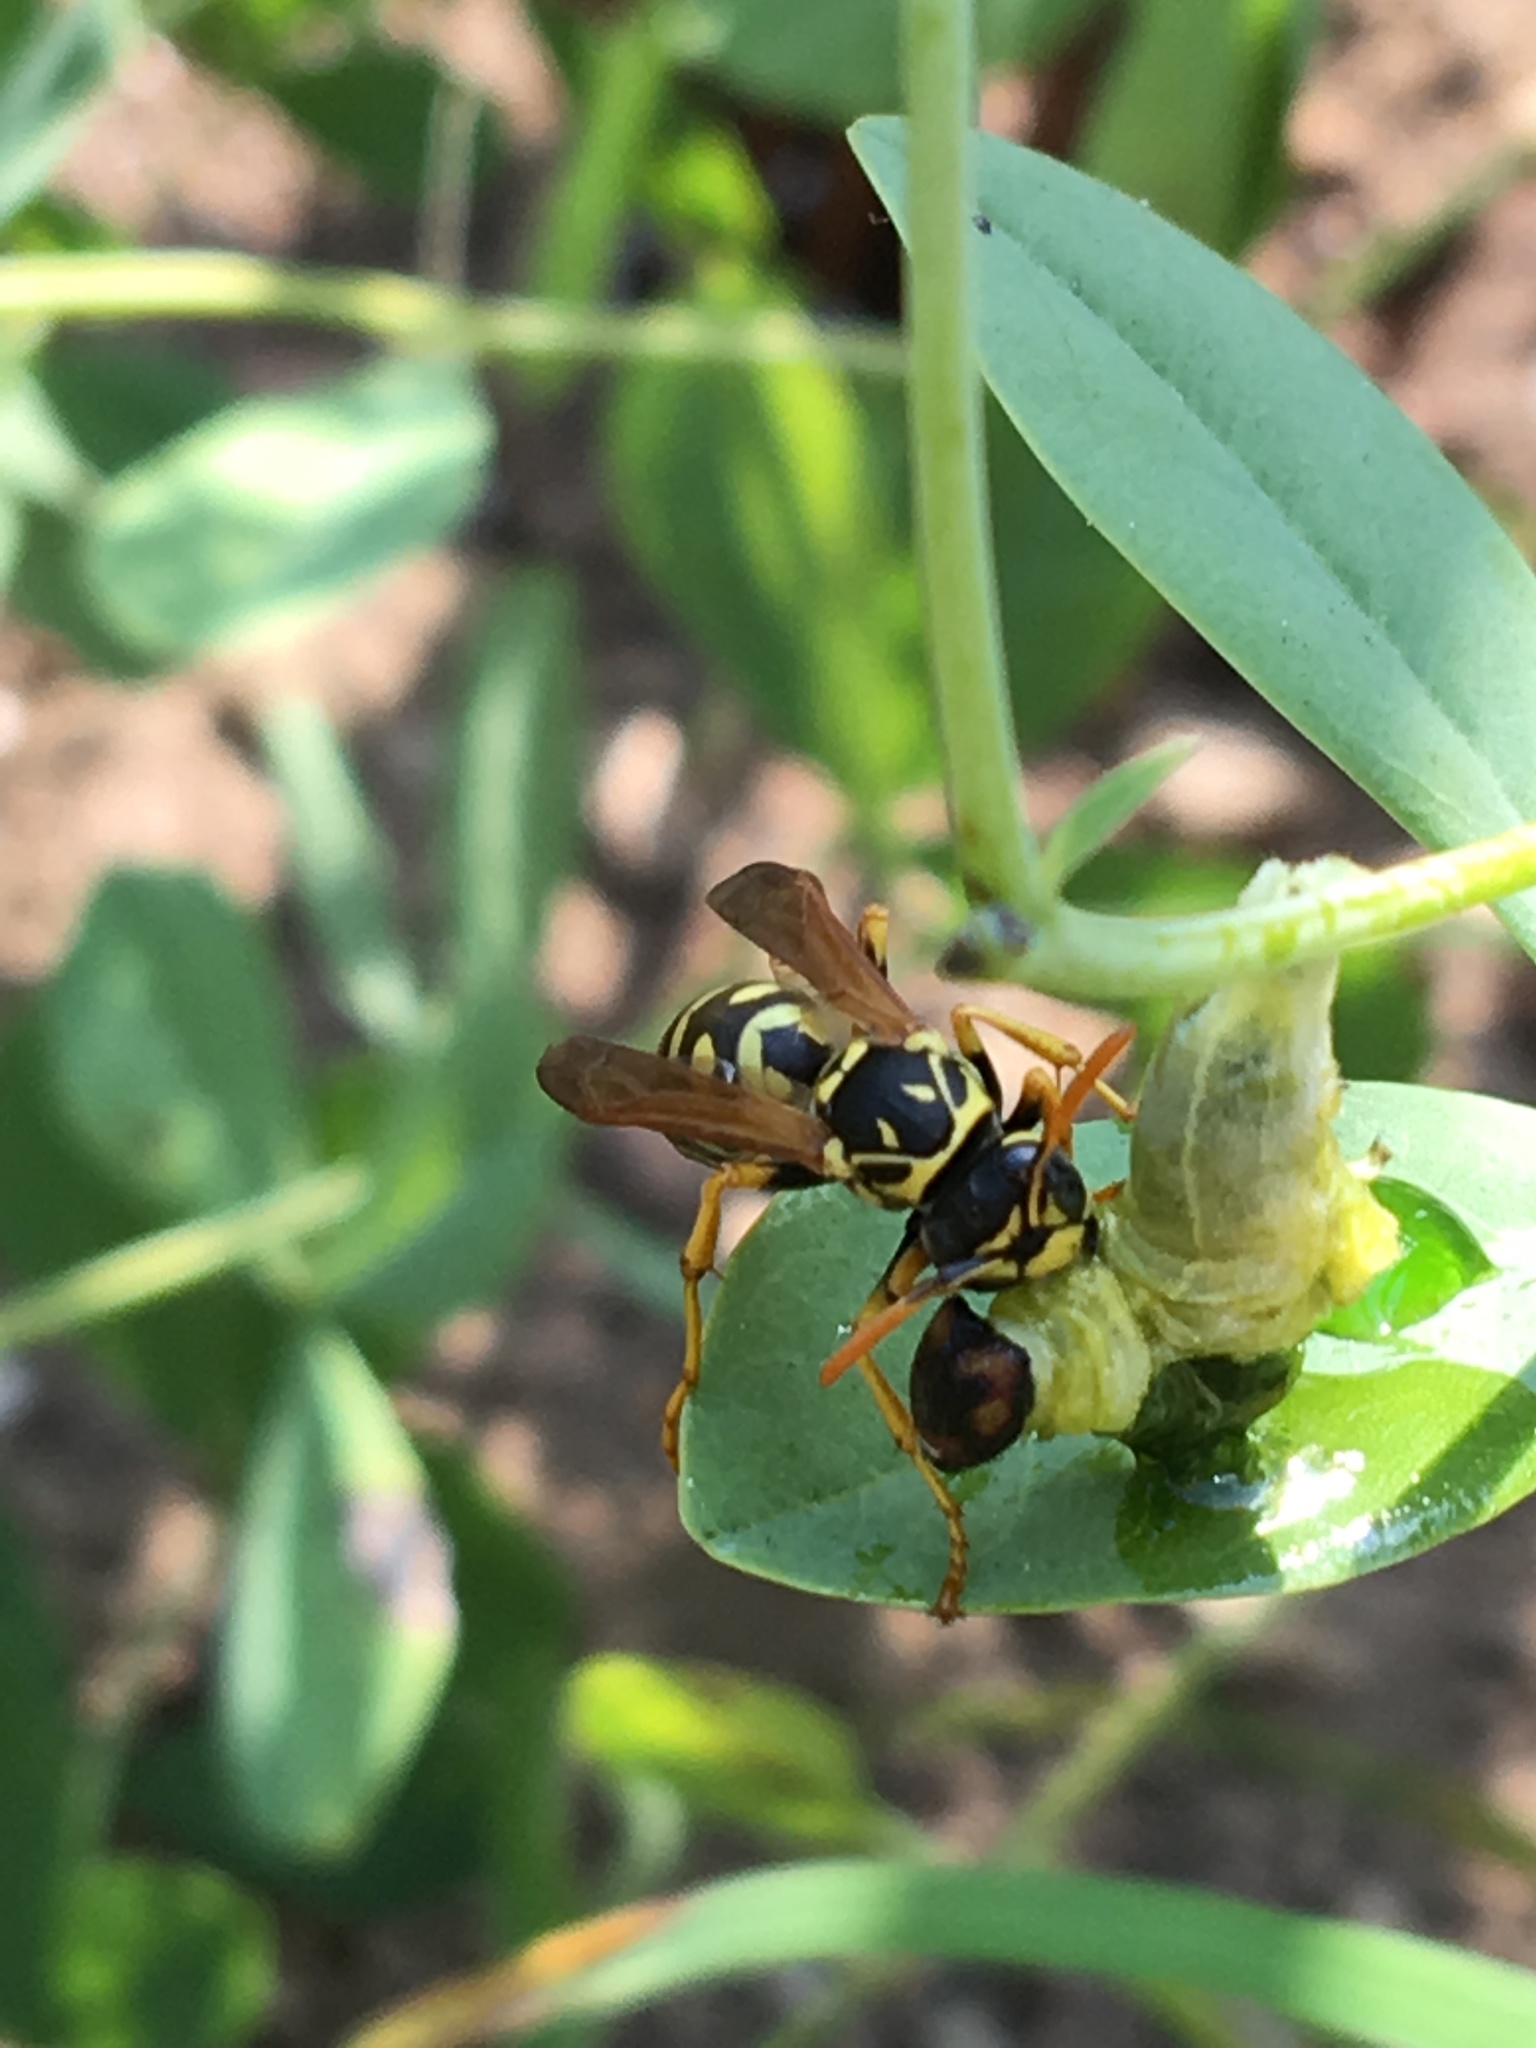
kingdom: Animalia
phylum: Arthropoda
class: Insecta
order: Hymenoptera
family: Eumenidae
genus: Polistes
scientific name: Polistes dominula
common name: Paper wasp
